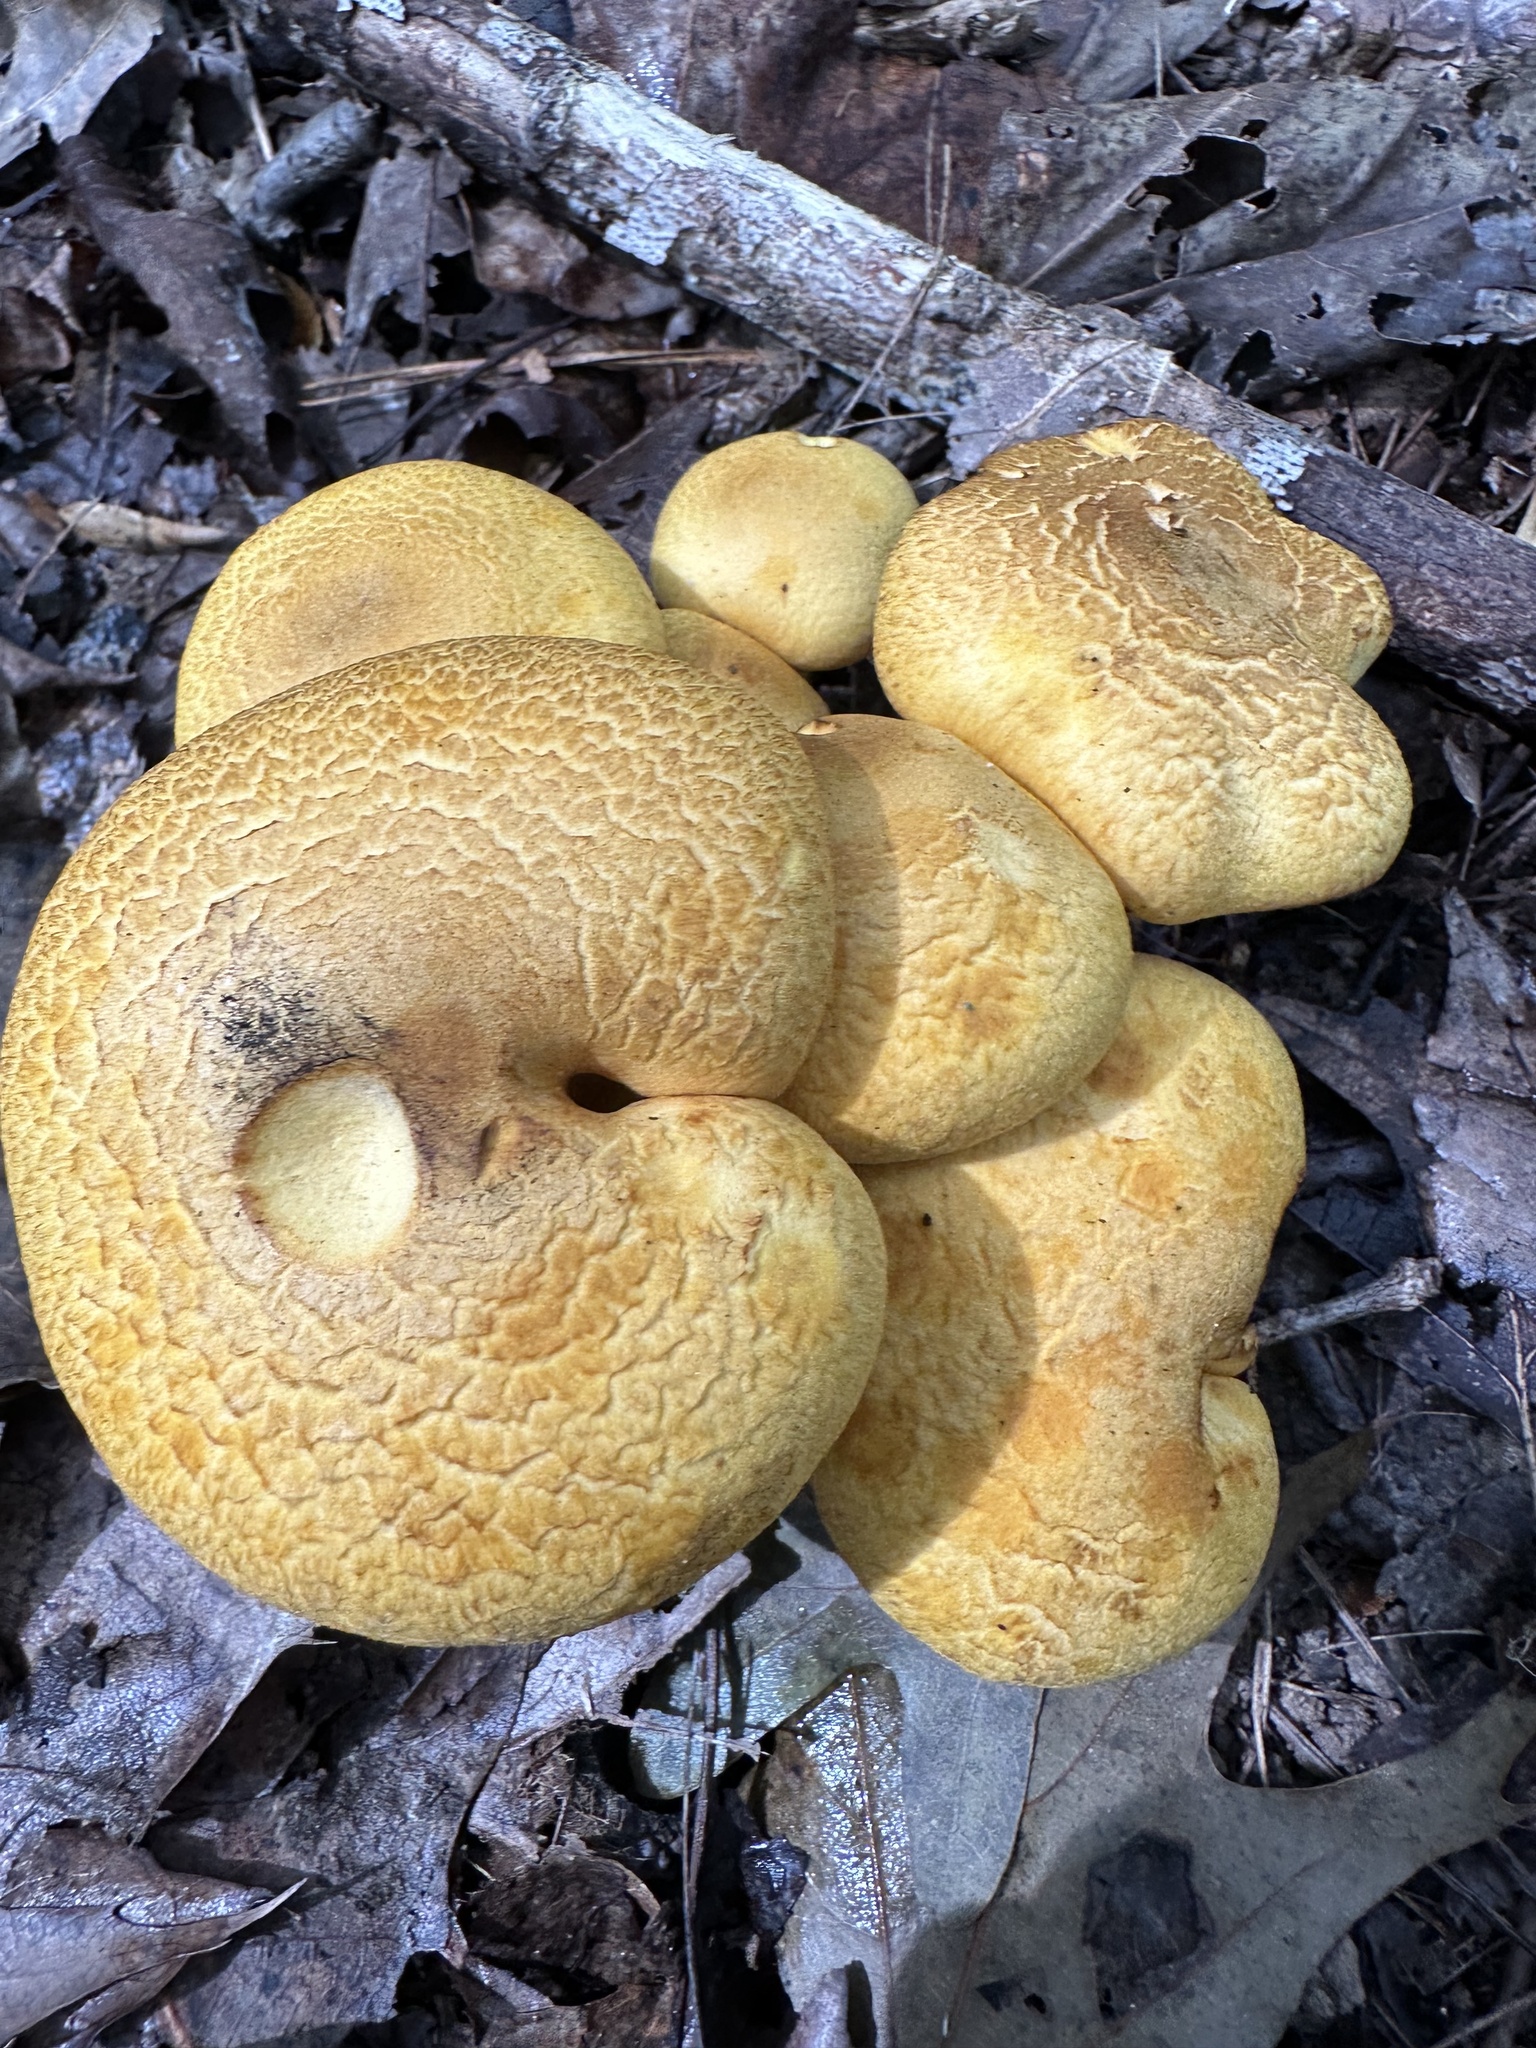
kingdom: Fungi
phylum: Basidiomycota
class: Agaricomycetes
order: Agaricales
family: Hymenogastraceae
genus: Gymnopilus
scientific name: Gymnopilus subspectabilis
